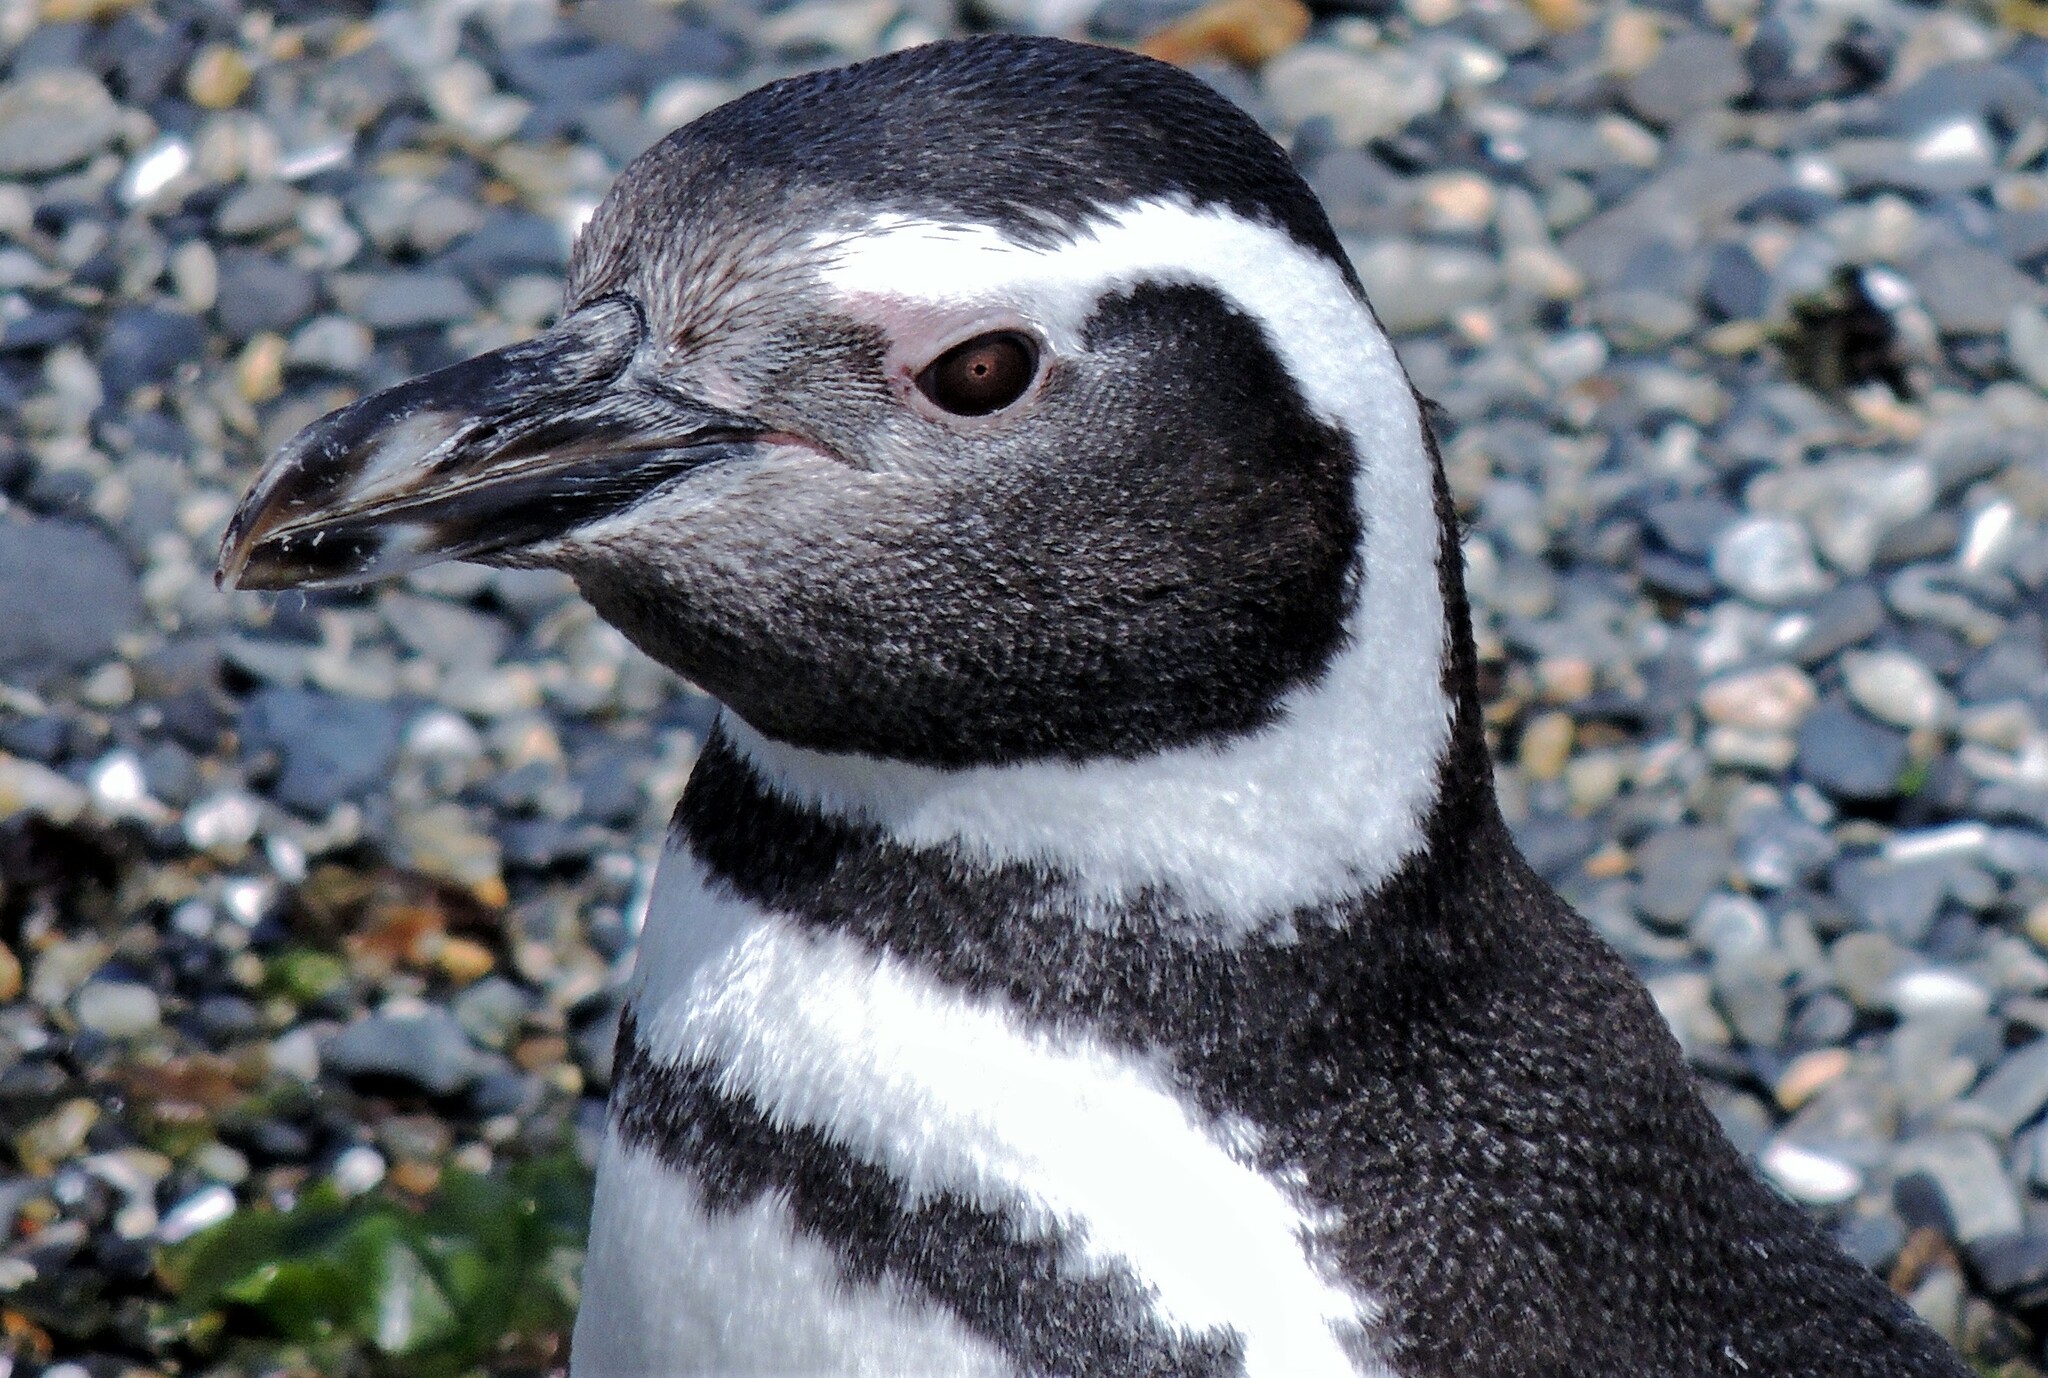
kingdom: Animalia
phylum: Chordata
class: Aves
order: Sphenisciformes
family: Spheniscidae
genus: Spheniscus
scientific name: Spheniscus magellanicus
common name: Magellanic penguin
